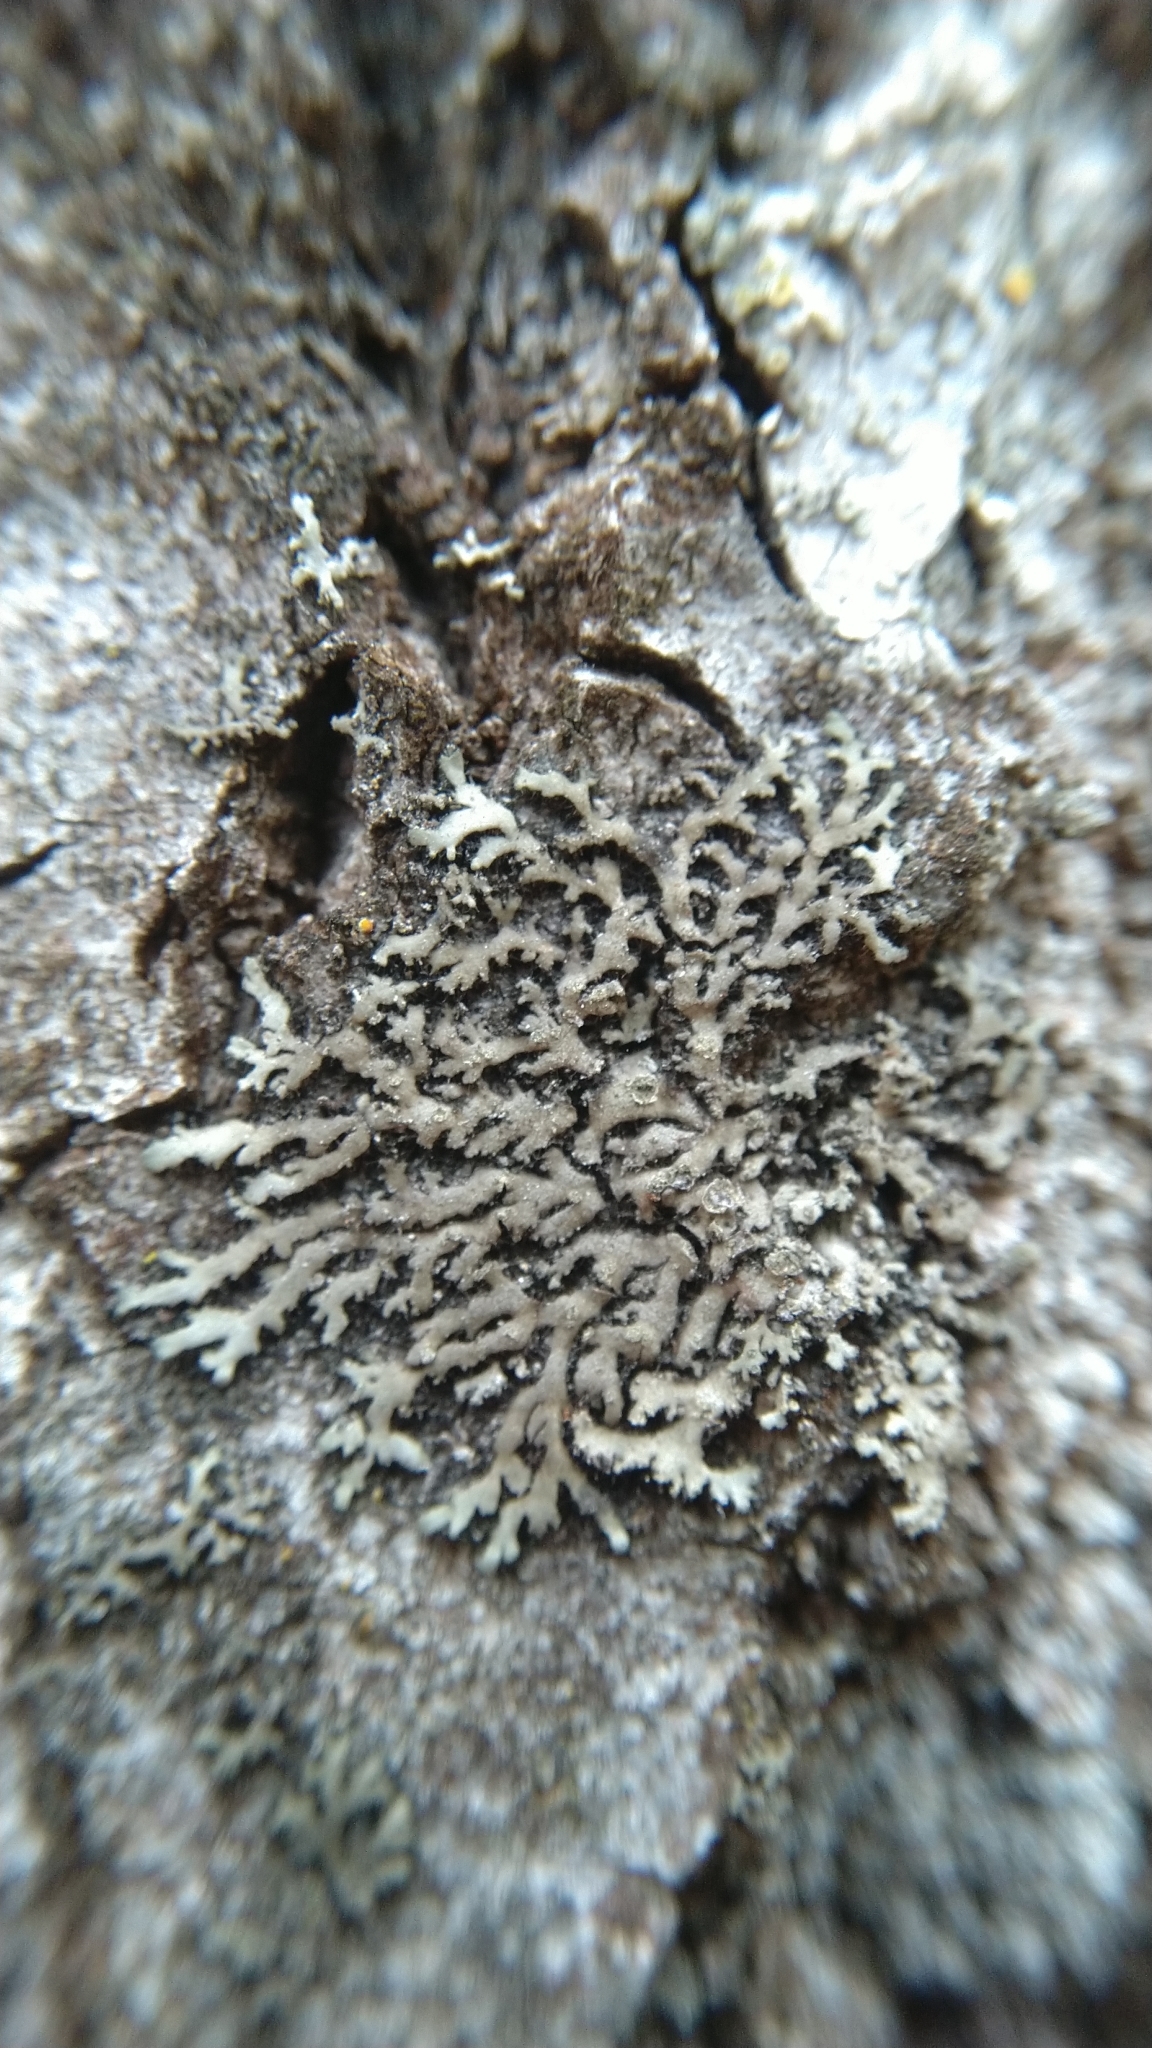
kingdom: Fungi
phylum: Ascomycota
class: Lecanoromycetes
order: Caliciales
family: Physciaceae
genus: Phaeophyscia
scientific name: Phaeophyscia orbicularis
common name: Mealy shadow lichen
